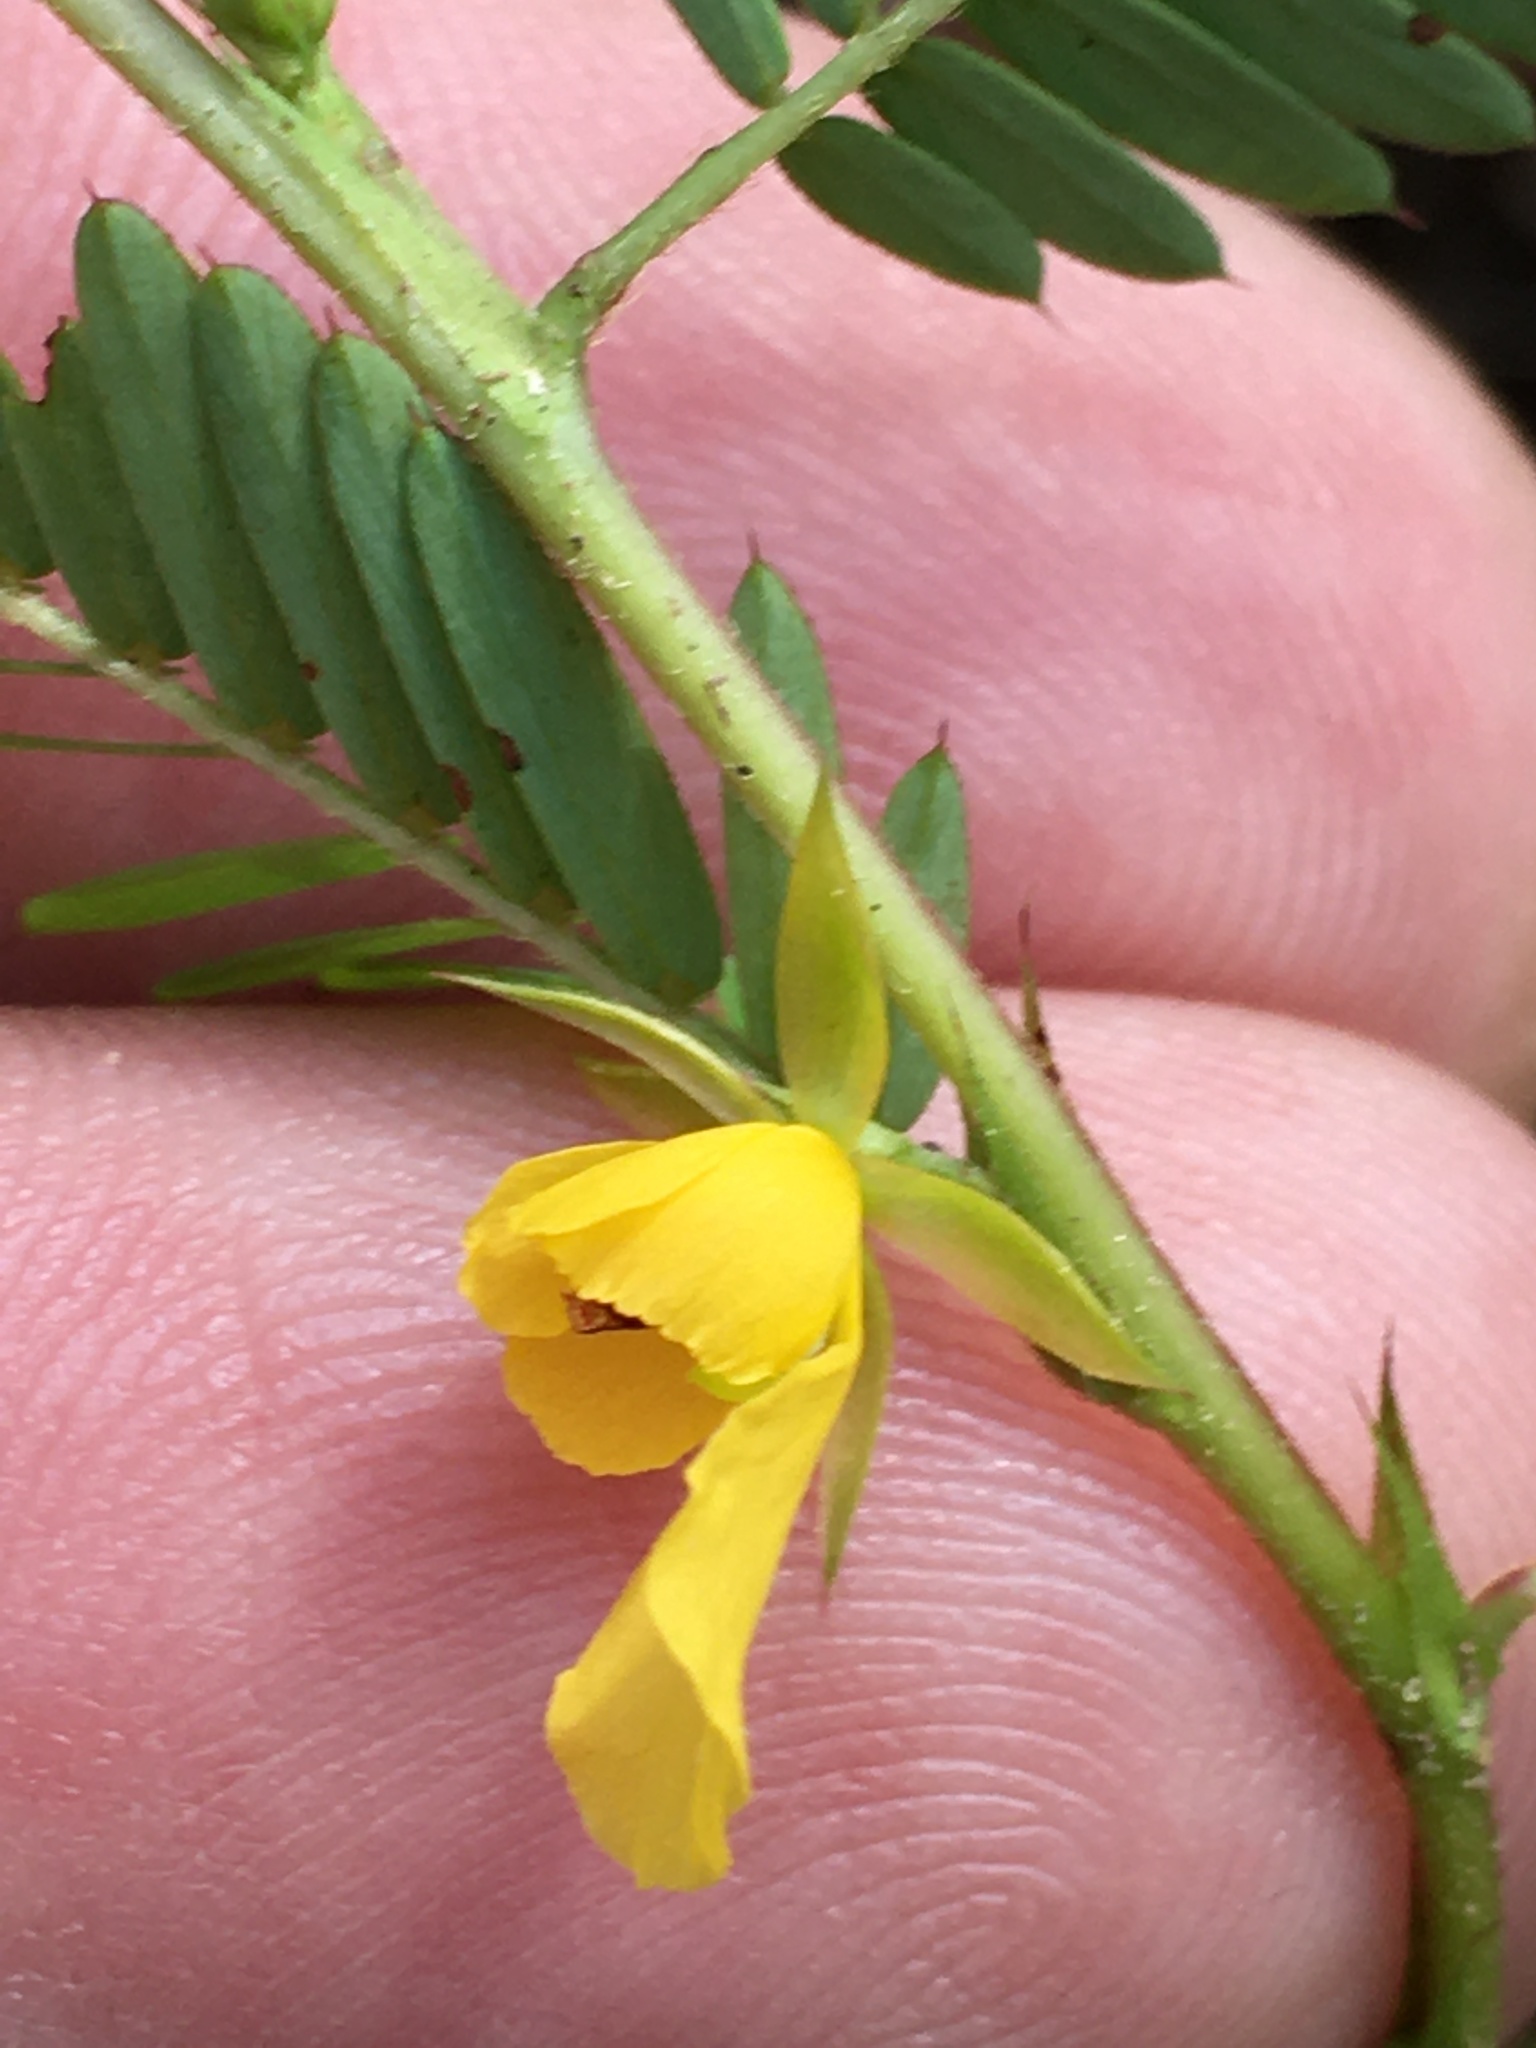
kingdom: Plantae
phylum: Tracheophyta
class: Magnoliopsida
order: Fabales
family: Fabaceae
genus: Chamaecrista
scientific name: Chamaecrista nictitans
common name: Sensitive cassia
